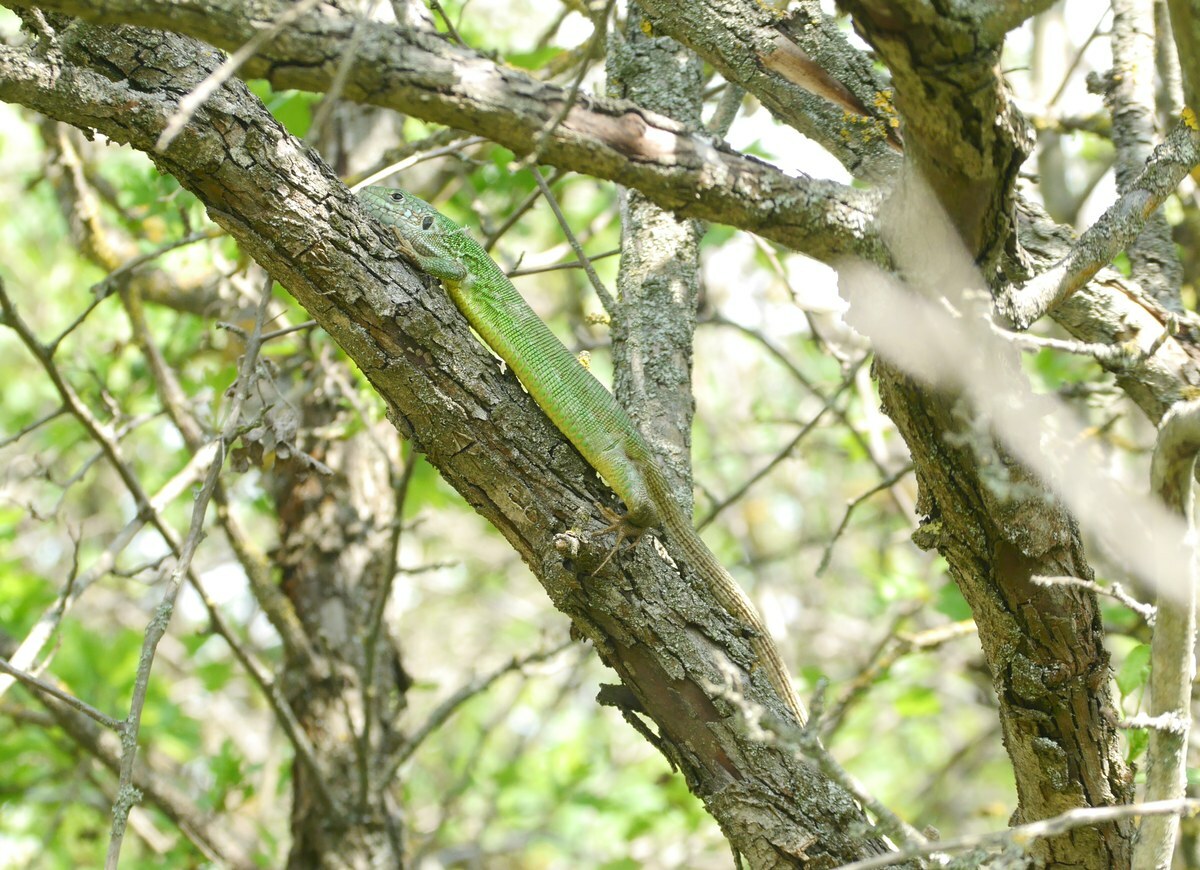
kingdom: Animalia
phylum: Chordata
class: Squamata
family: Lacertidae
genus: Lacerta
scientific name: Lacerta viridis
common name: European green lizard
